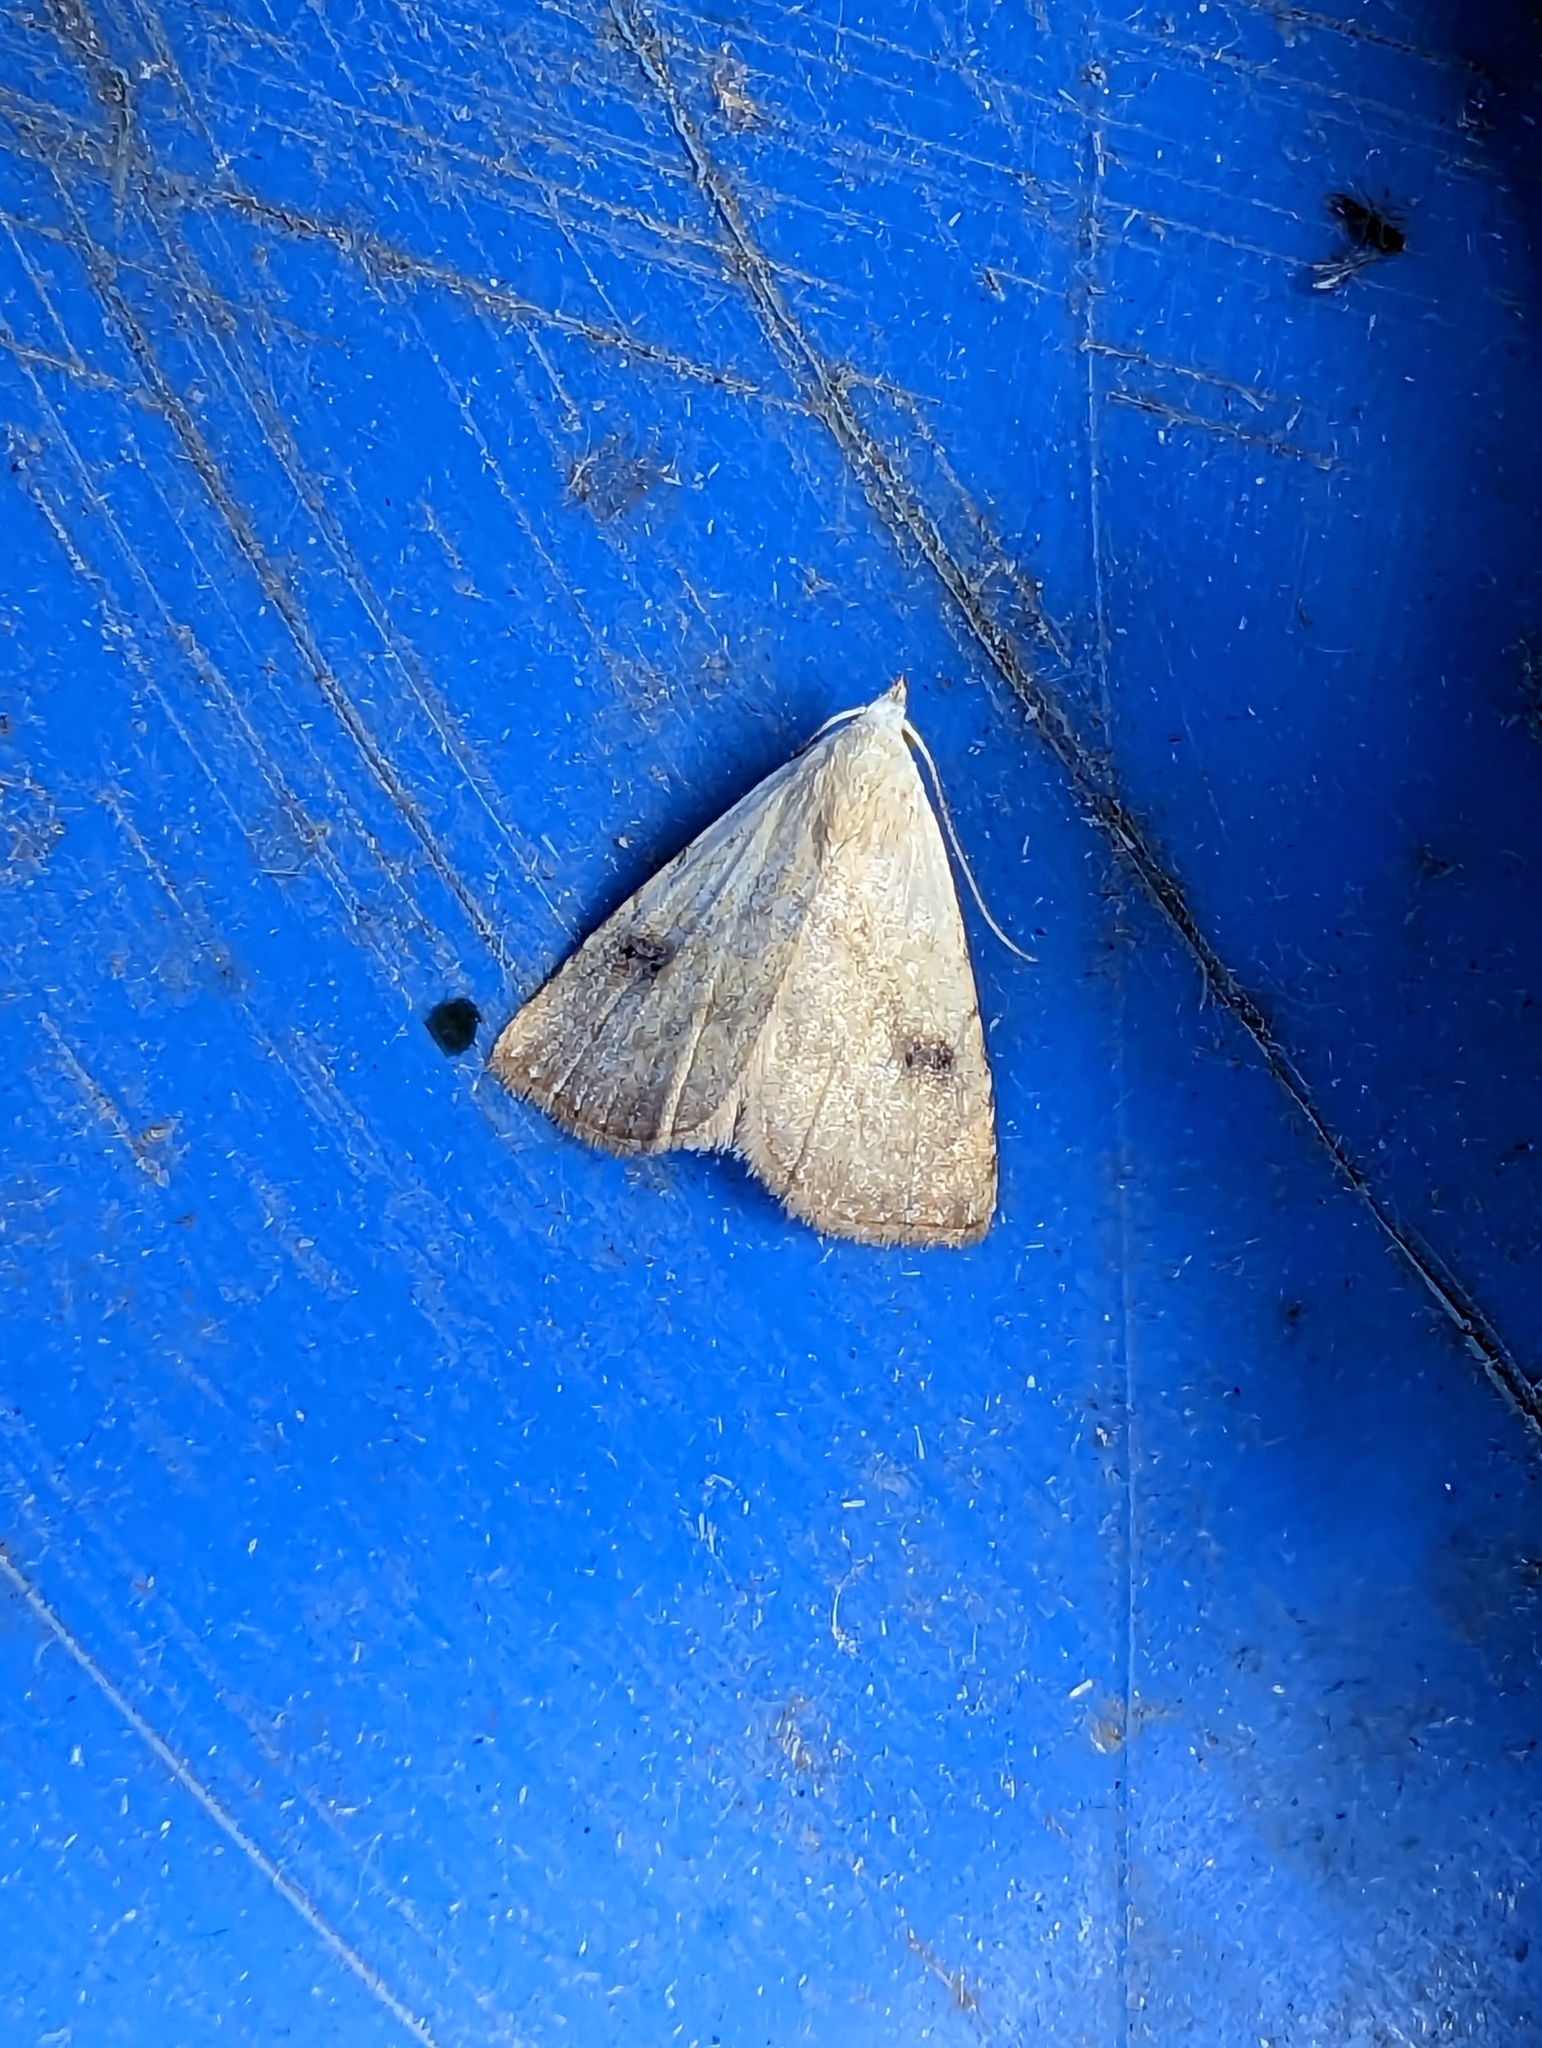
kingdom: Animalia
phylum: Arthropoda
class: Insecta
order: Lepidoptera
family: Erebidae
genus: Rivula
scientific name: Rivula sericealis
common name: Straw dot
